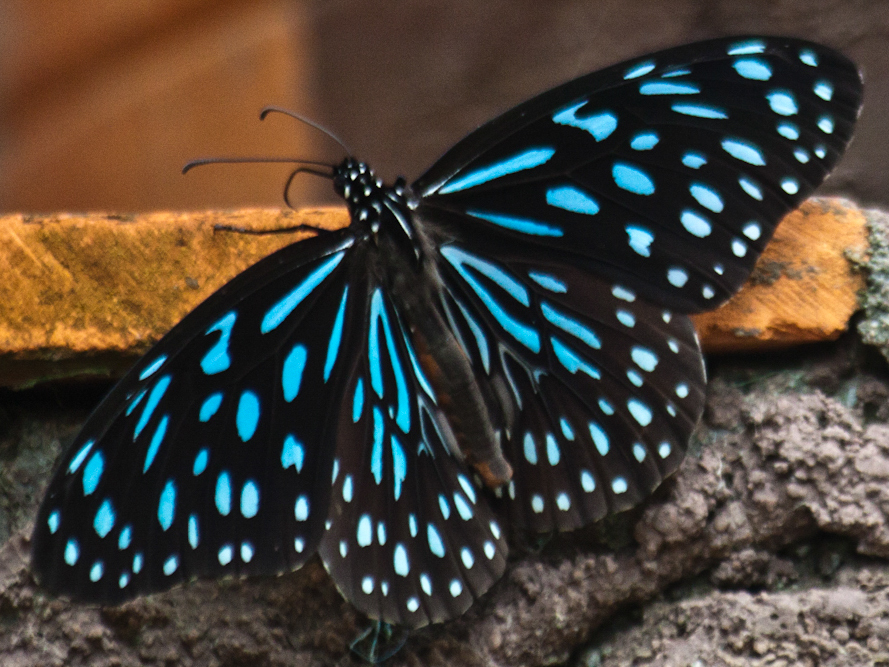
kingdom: Animalia
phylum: Arthropoda
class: Insecta
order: Lepidoptera
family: Nymphalidae
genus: Tirumala
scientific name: Tirumala septentrionis
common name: Dark blue tiger butterfly
